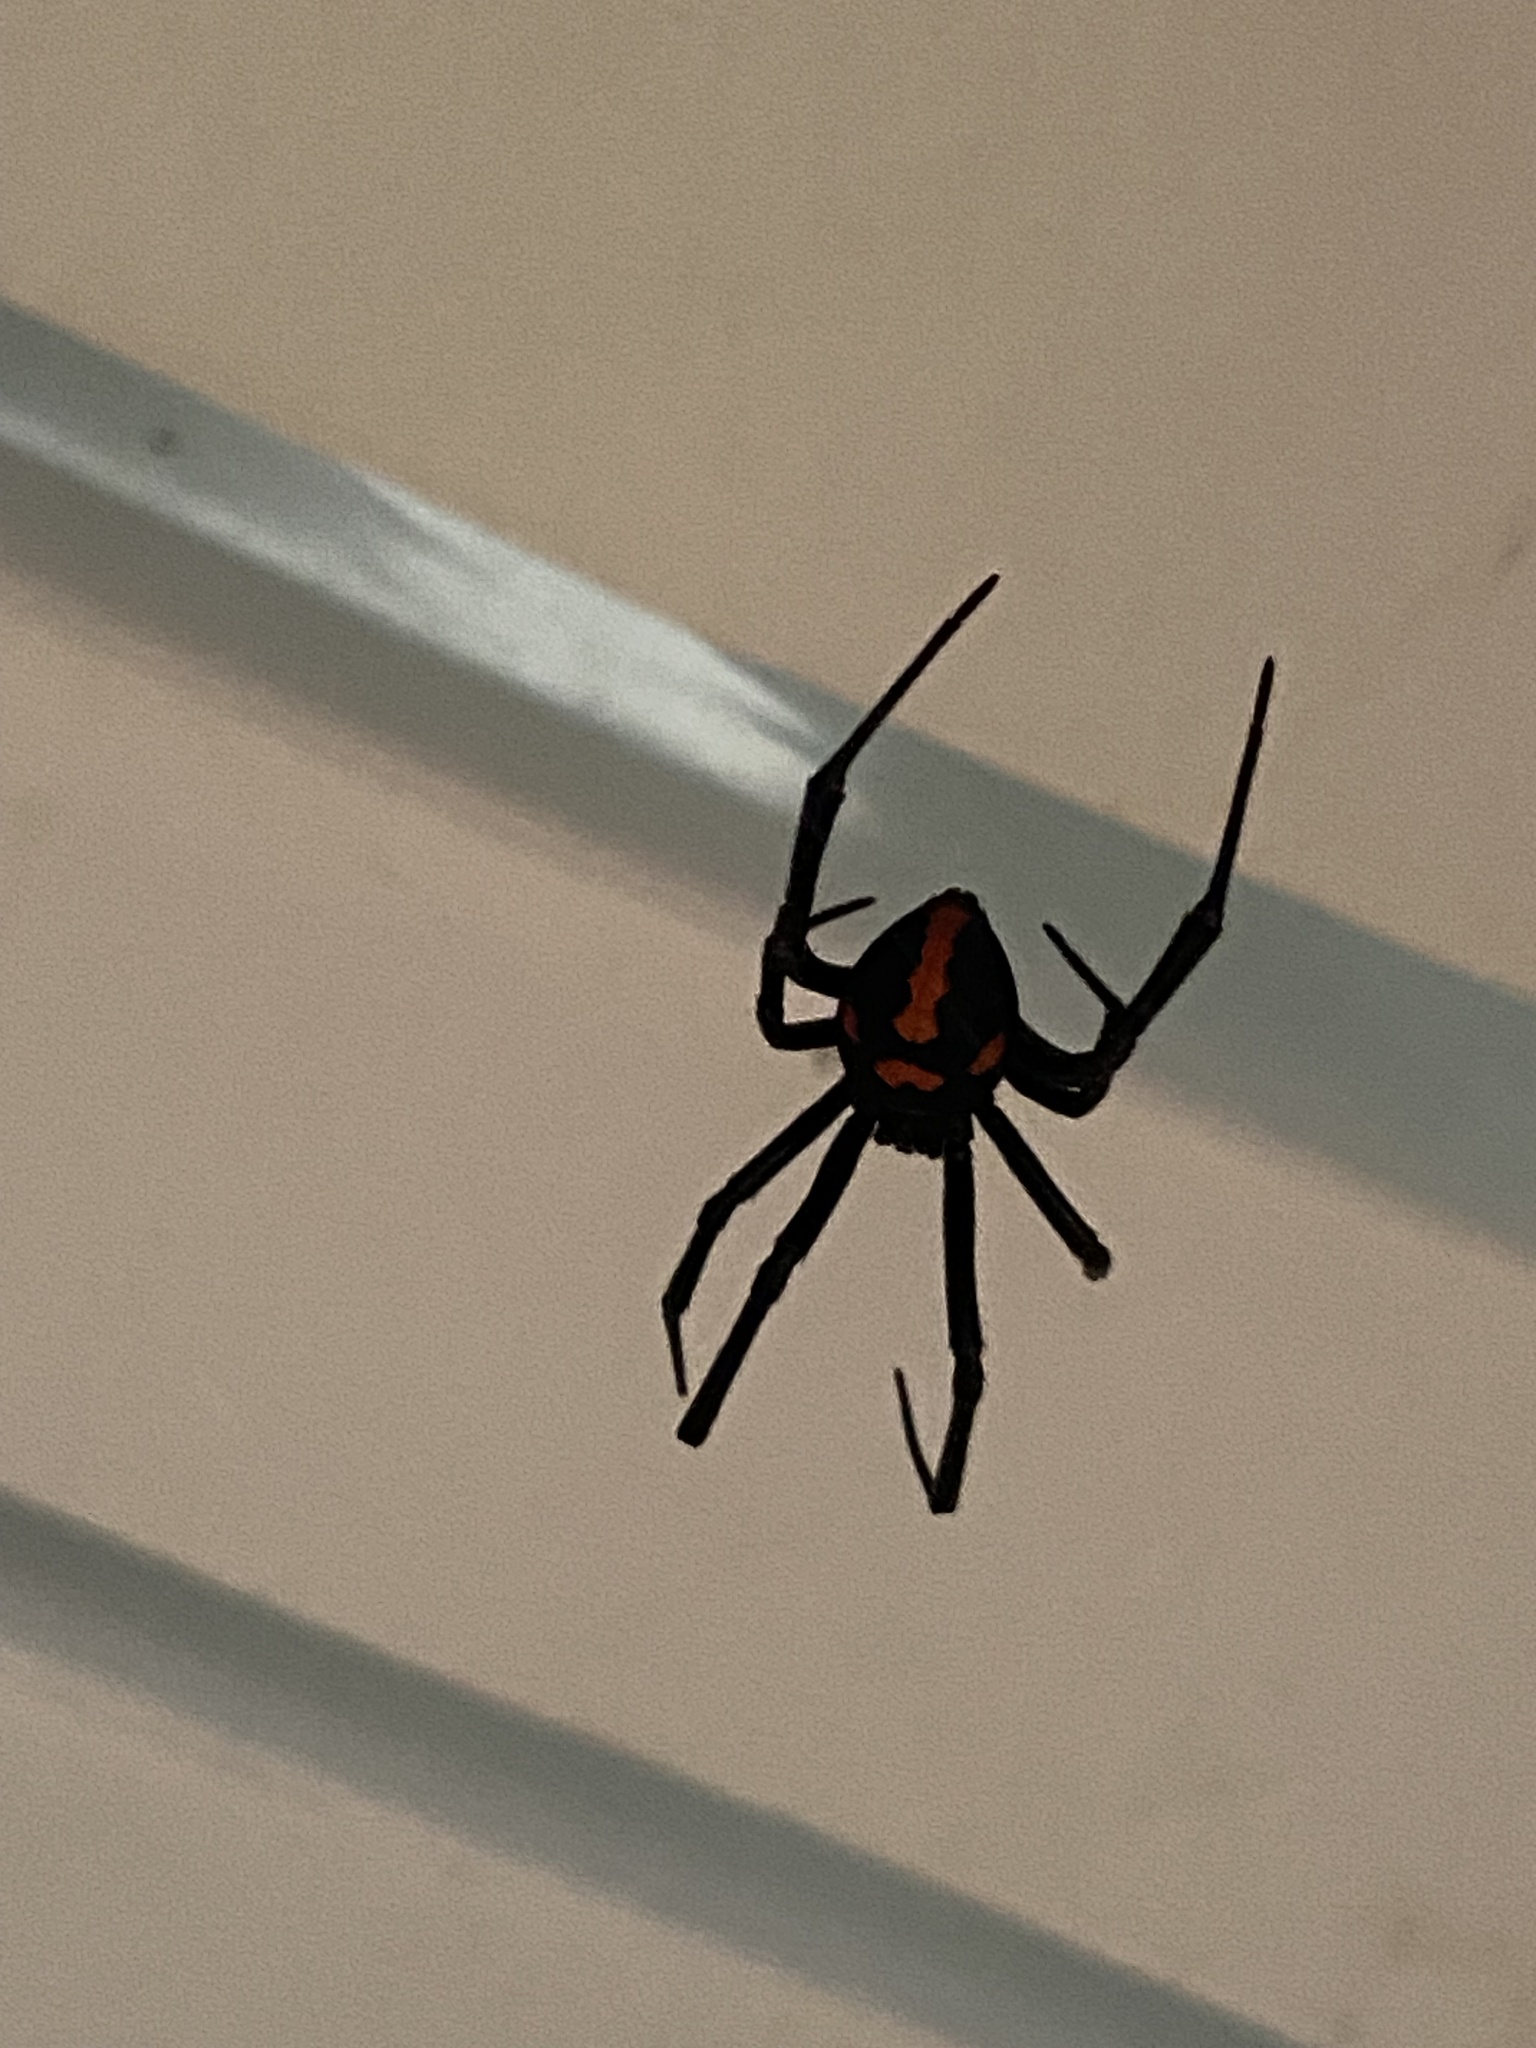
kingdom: Animalia
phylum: Arthropoda
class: Arachnida
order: Araneae
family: Theridiidae
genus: Latrodectus
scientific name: Latrodectus mirabilis
